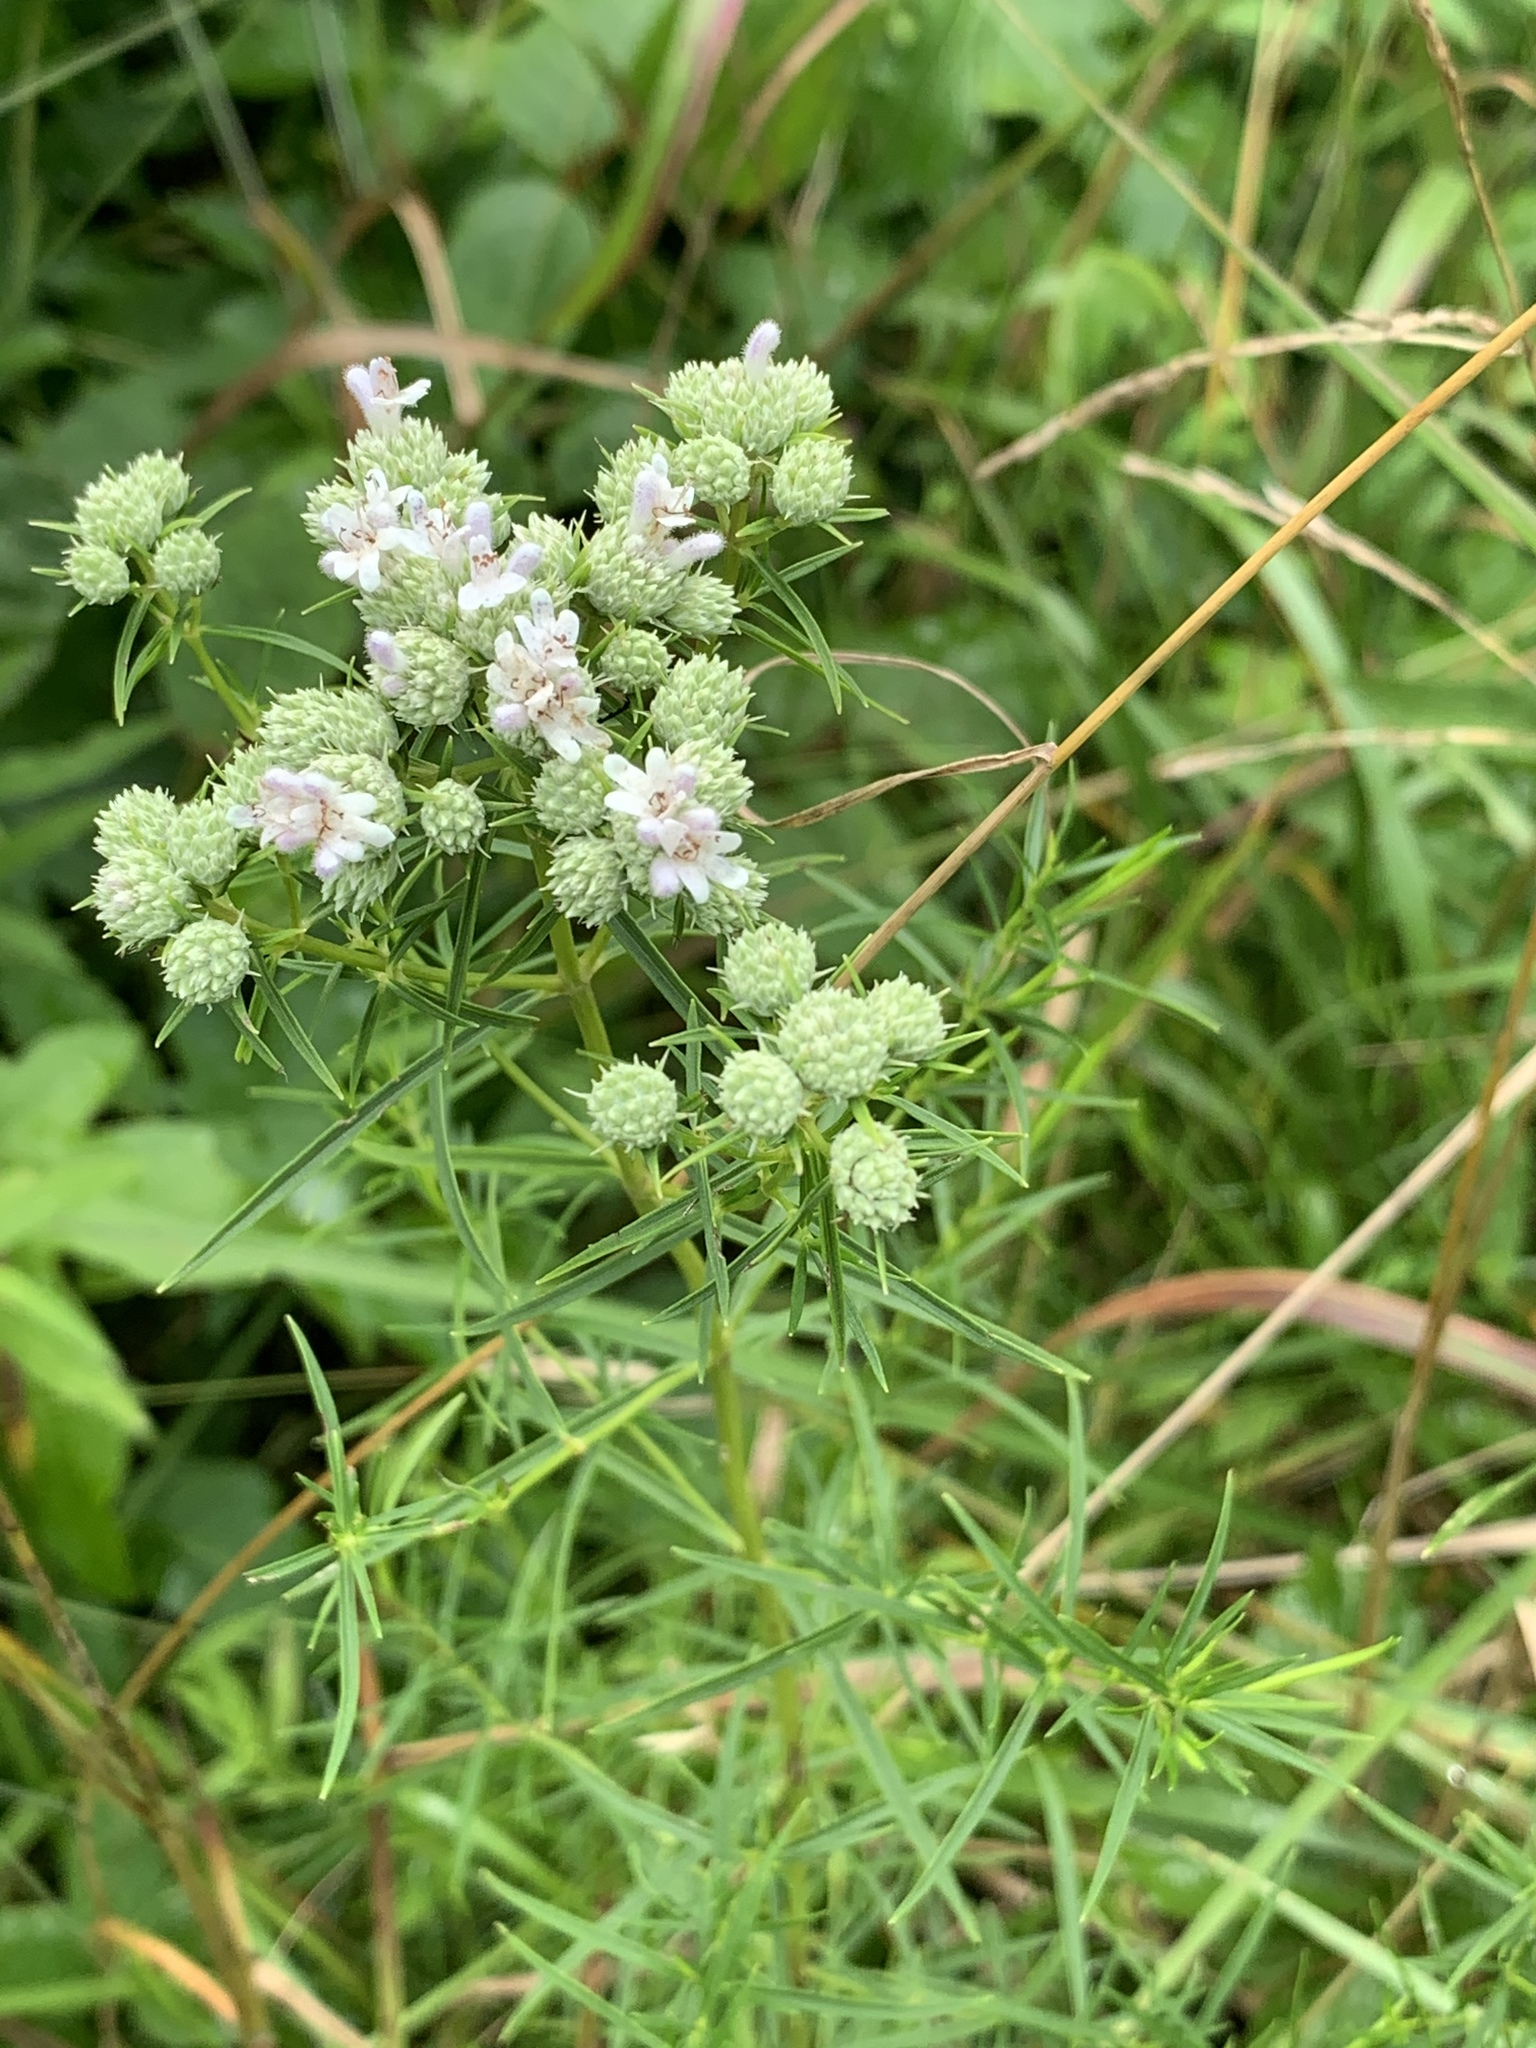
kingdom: Plantae
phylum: Tracheophyta
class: Magnoliopsida
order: Lamiales
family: Lamiaceae
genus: Pycnanthemum
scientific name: Pycnanthemum tenuifolium
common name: Narrow-leaf mountain-mint
